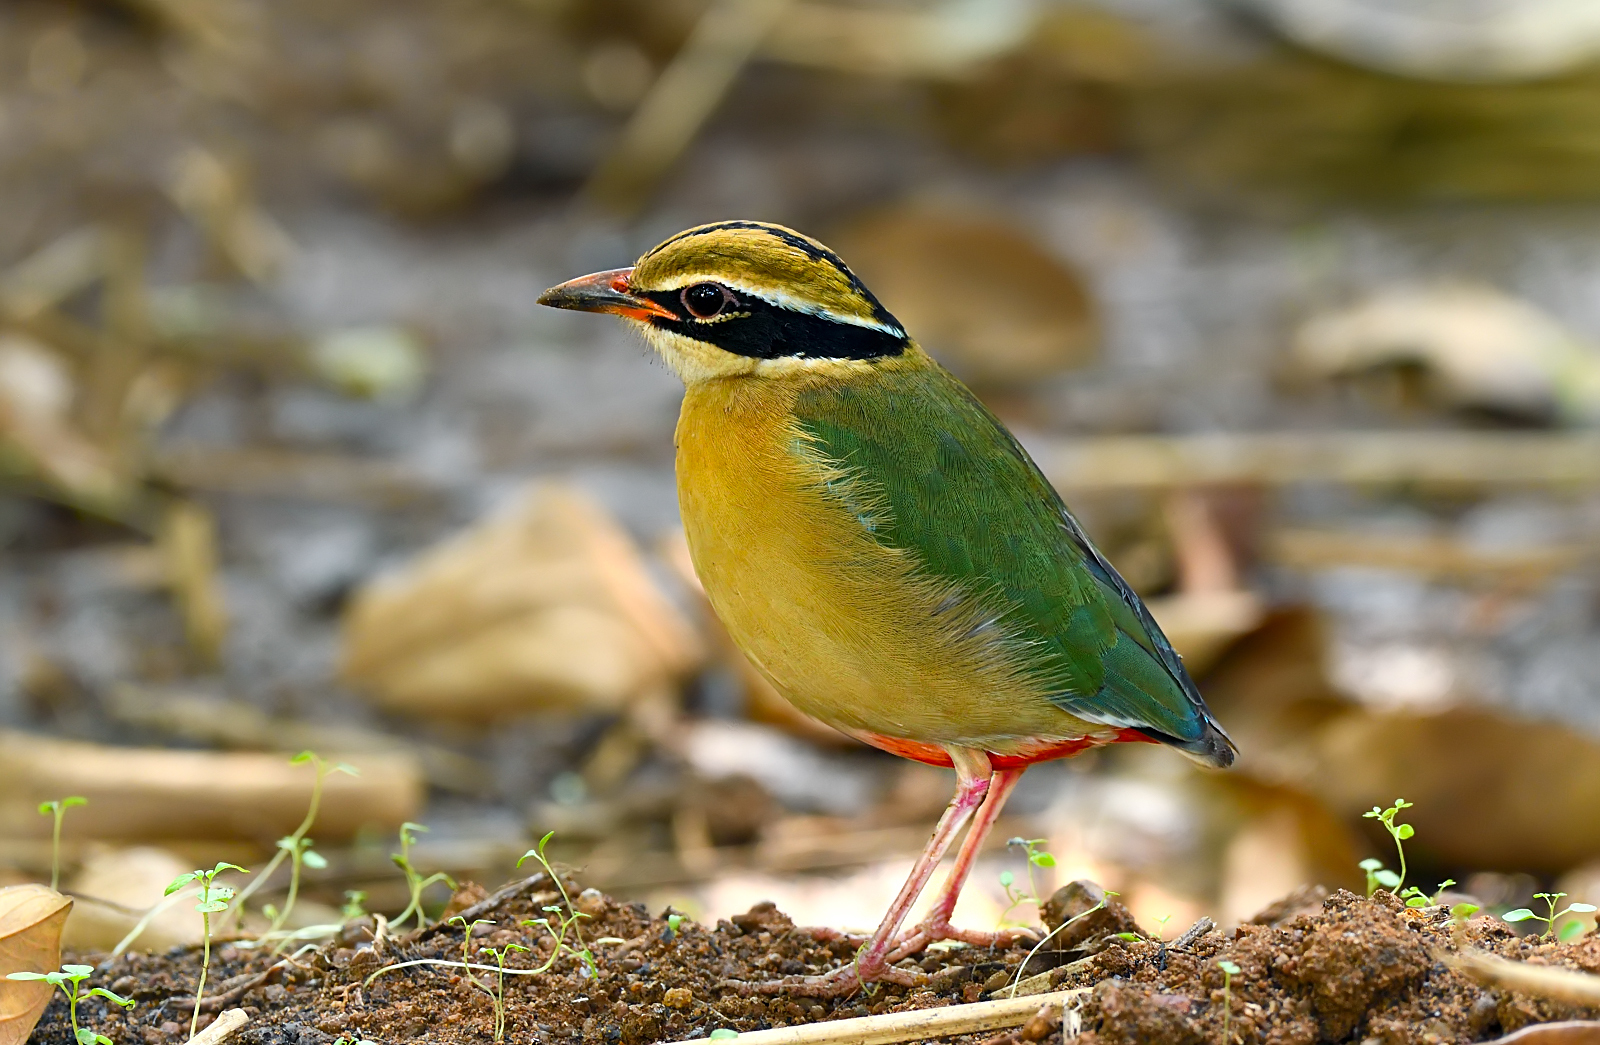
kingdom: Animalia
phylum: Chordata
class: Aves
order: Passeriformes
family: Pittidae
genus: Pitta
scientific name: Pitta brachyura
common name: Indian pitta
